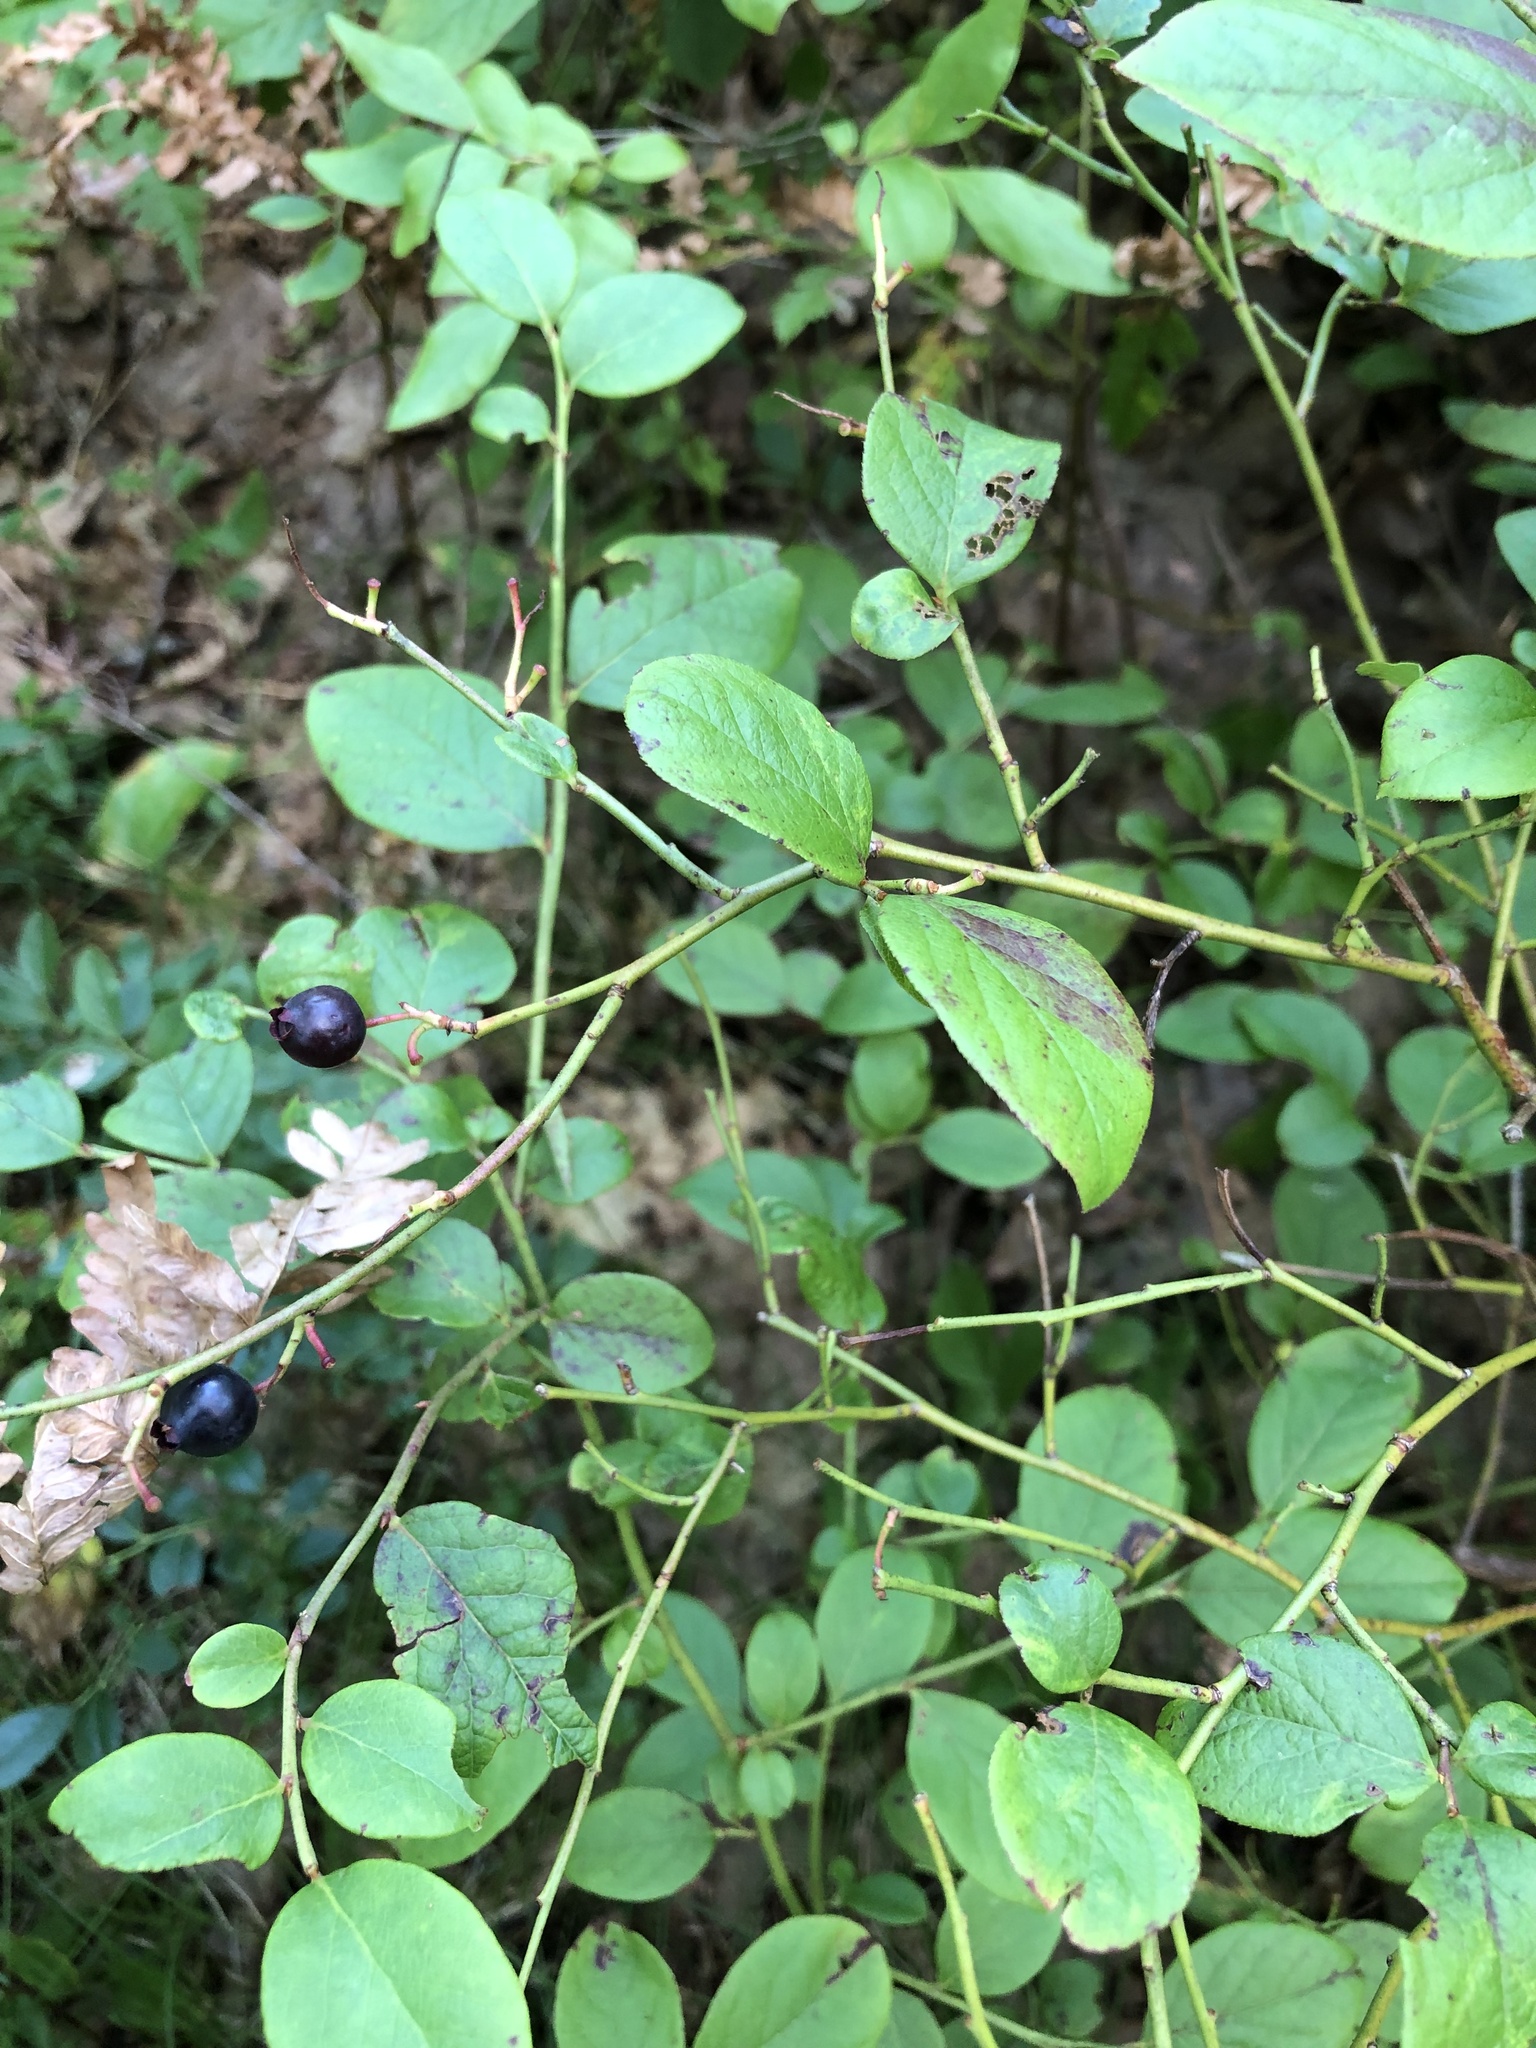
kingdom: Plantae
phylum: Tracheophyta
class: Magnoliopsida
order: Ericales
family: Ericaceae
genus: Vaccinium
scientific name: Vaccinium pallidum
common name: Blue ridge blueberry
